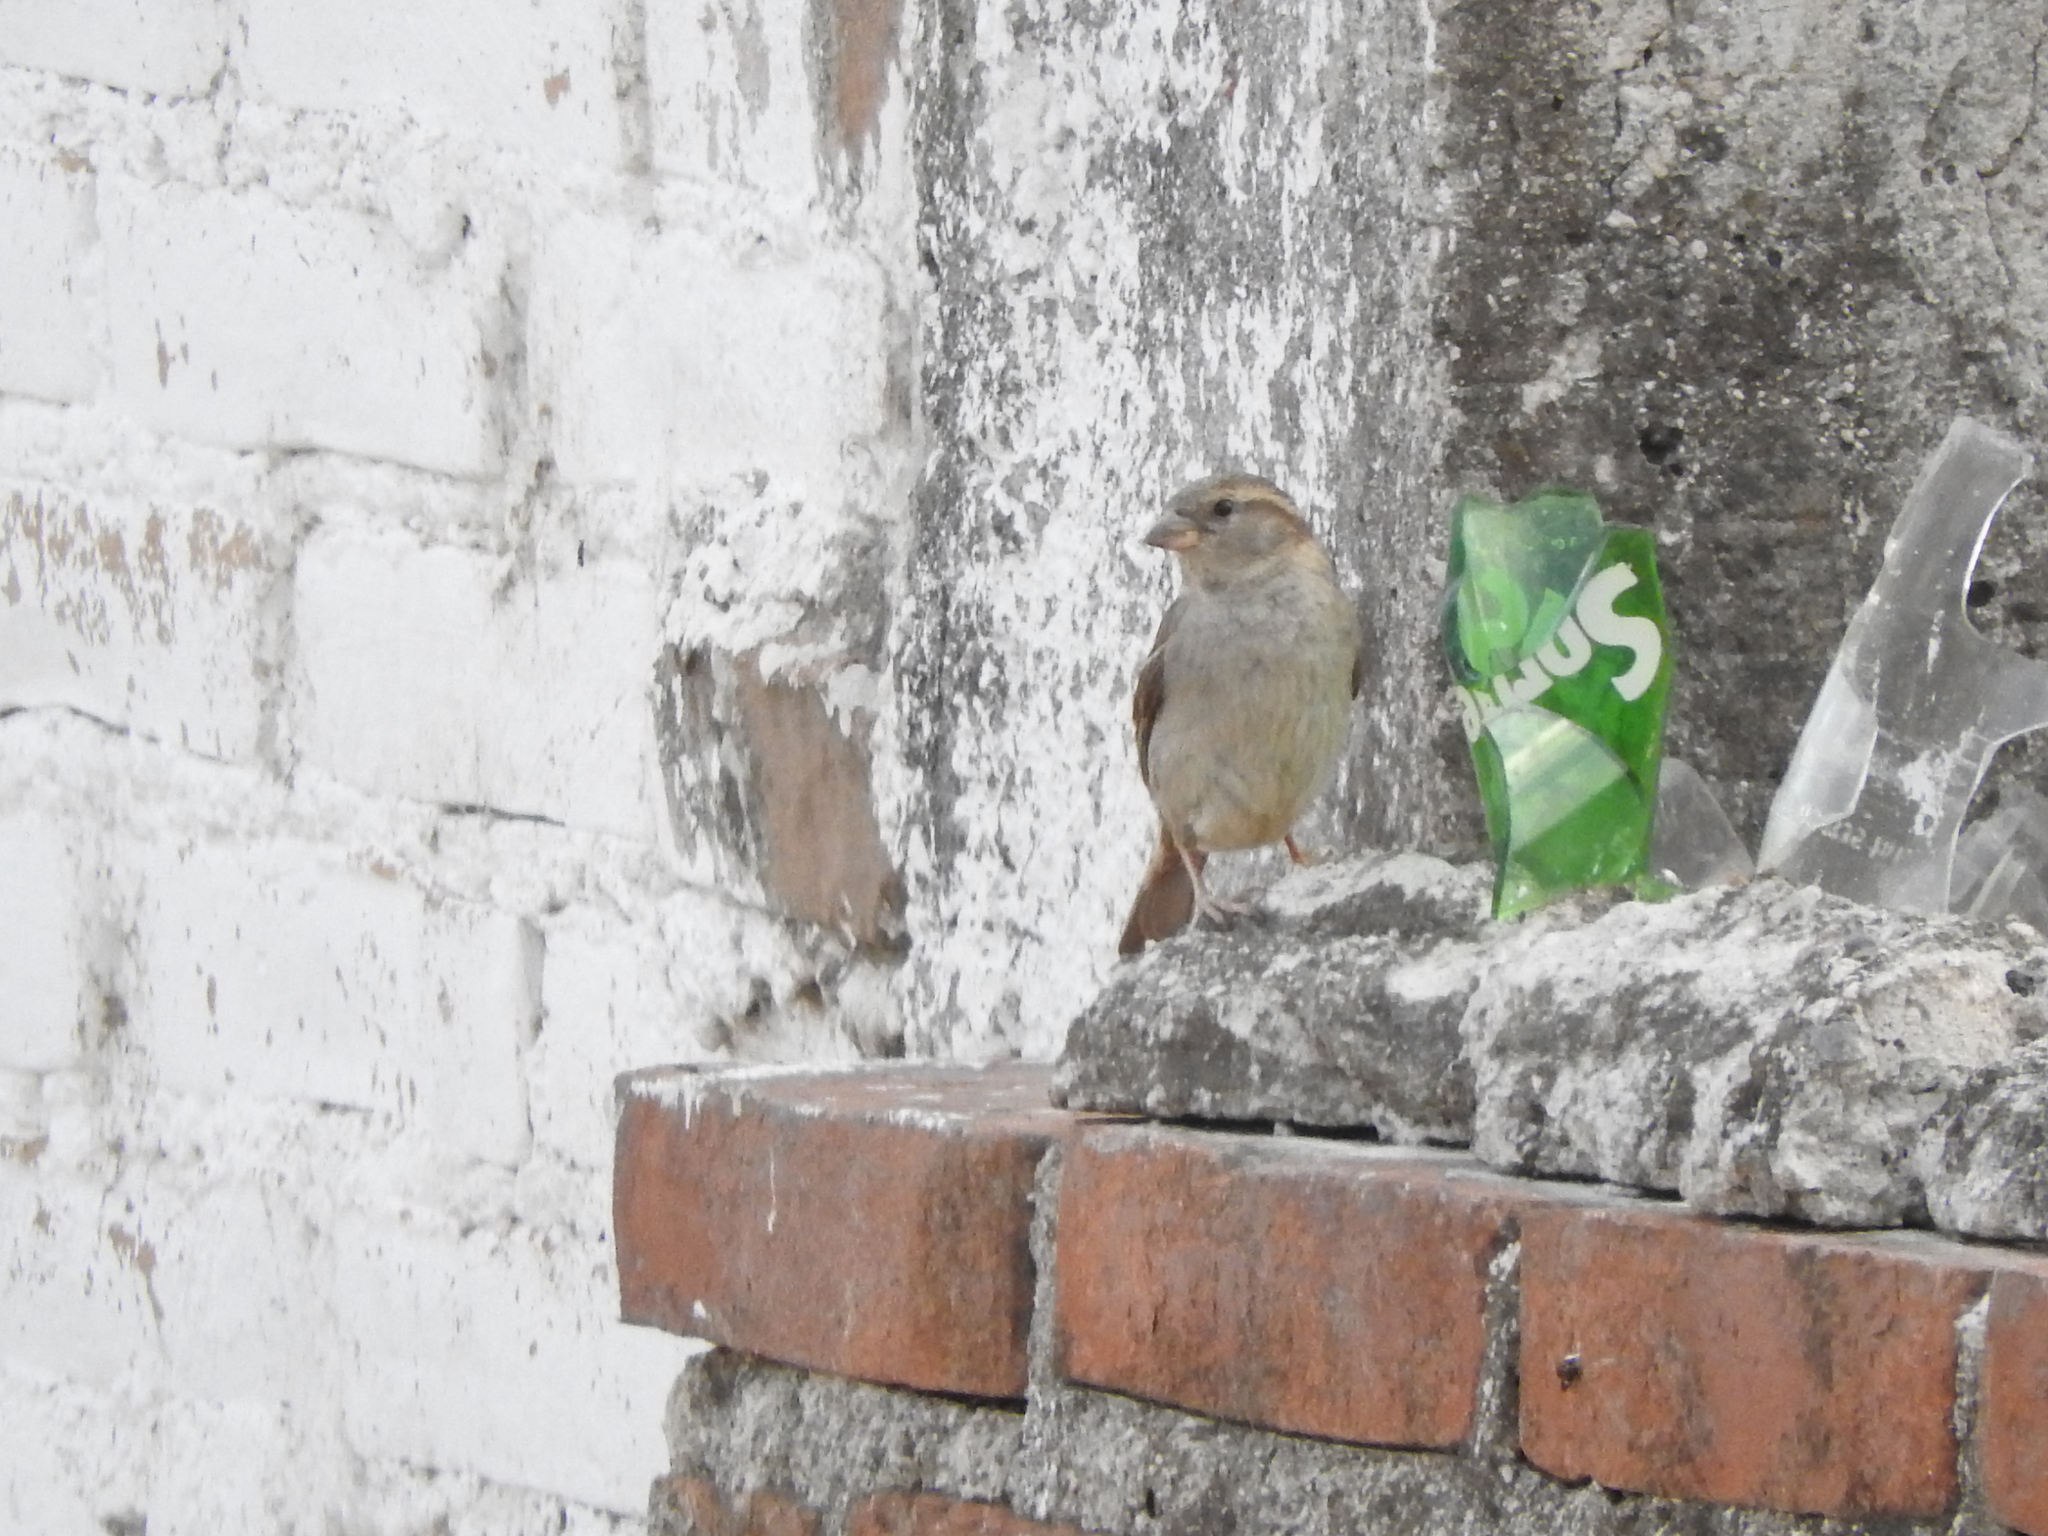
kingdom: Animalia
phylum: Chordata
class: Aves
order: Passeriformes
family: Passeridae
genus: Passer
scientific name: Passer domesticus
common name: House sparrow
